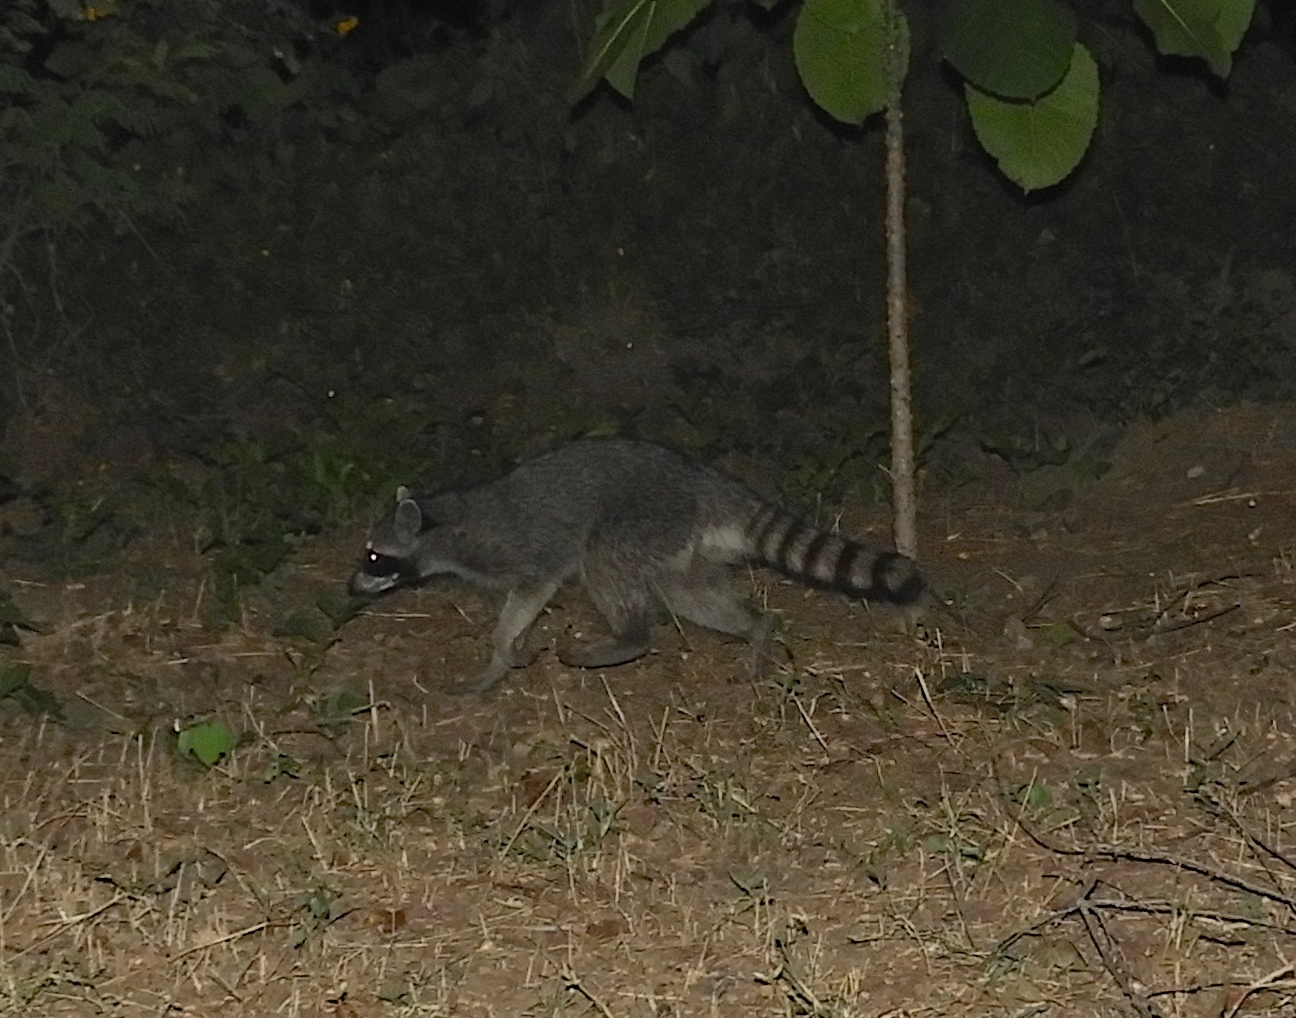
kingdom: Animalia
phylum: Chordata
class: Mammalia
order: Carnivora
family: Procyonidae
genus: Procyon
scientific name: Procyon lotor
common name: Raccoon
